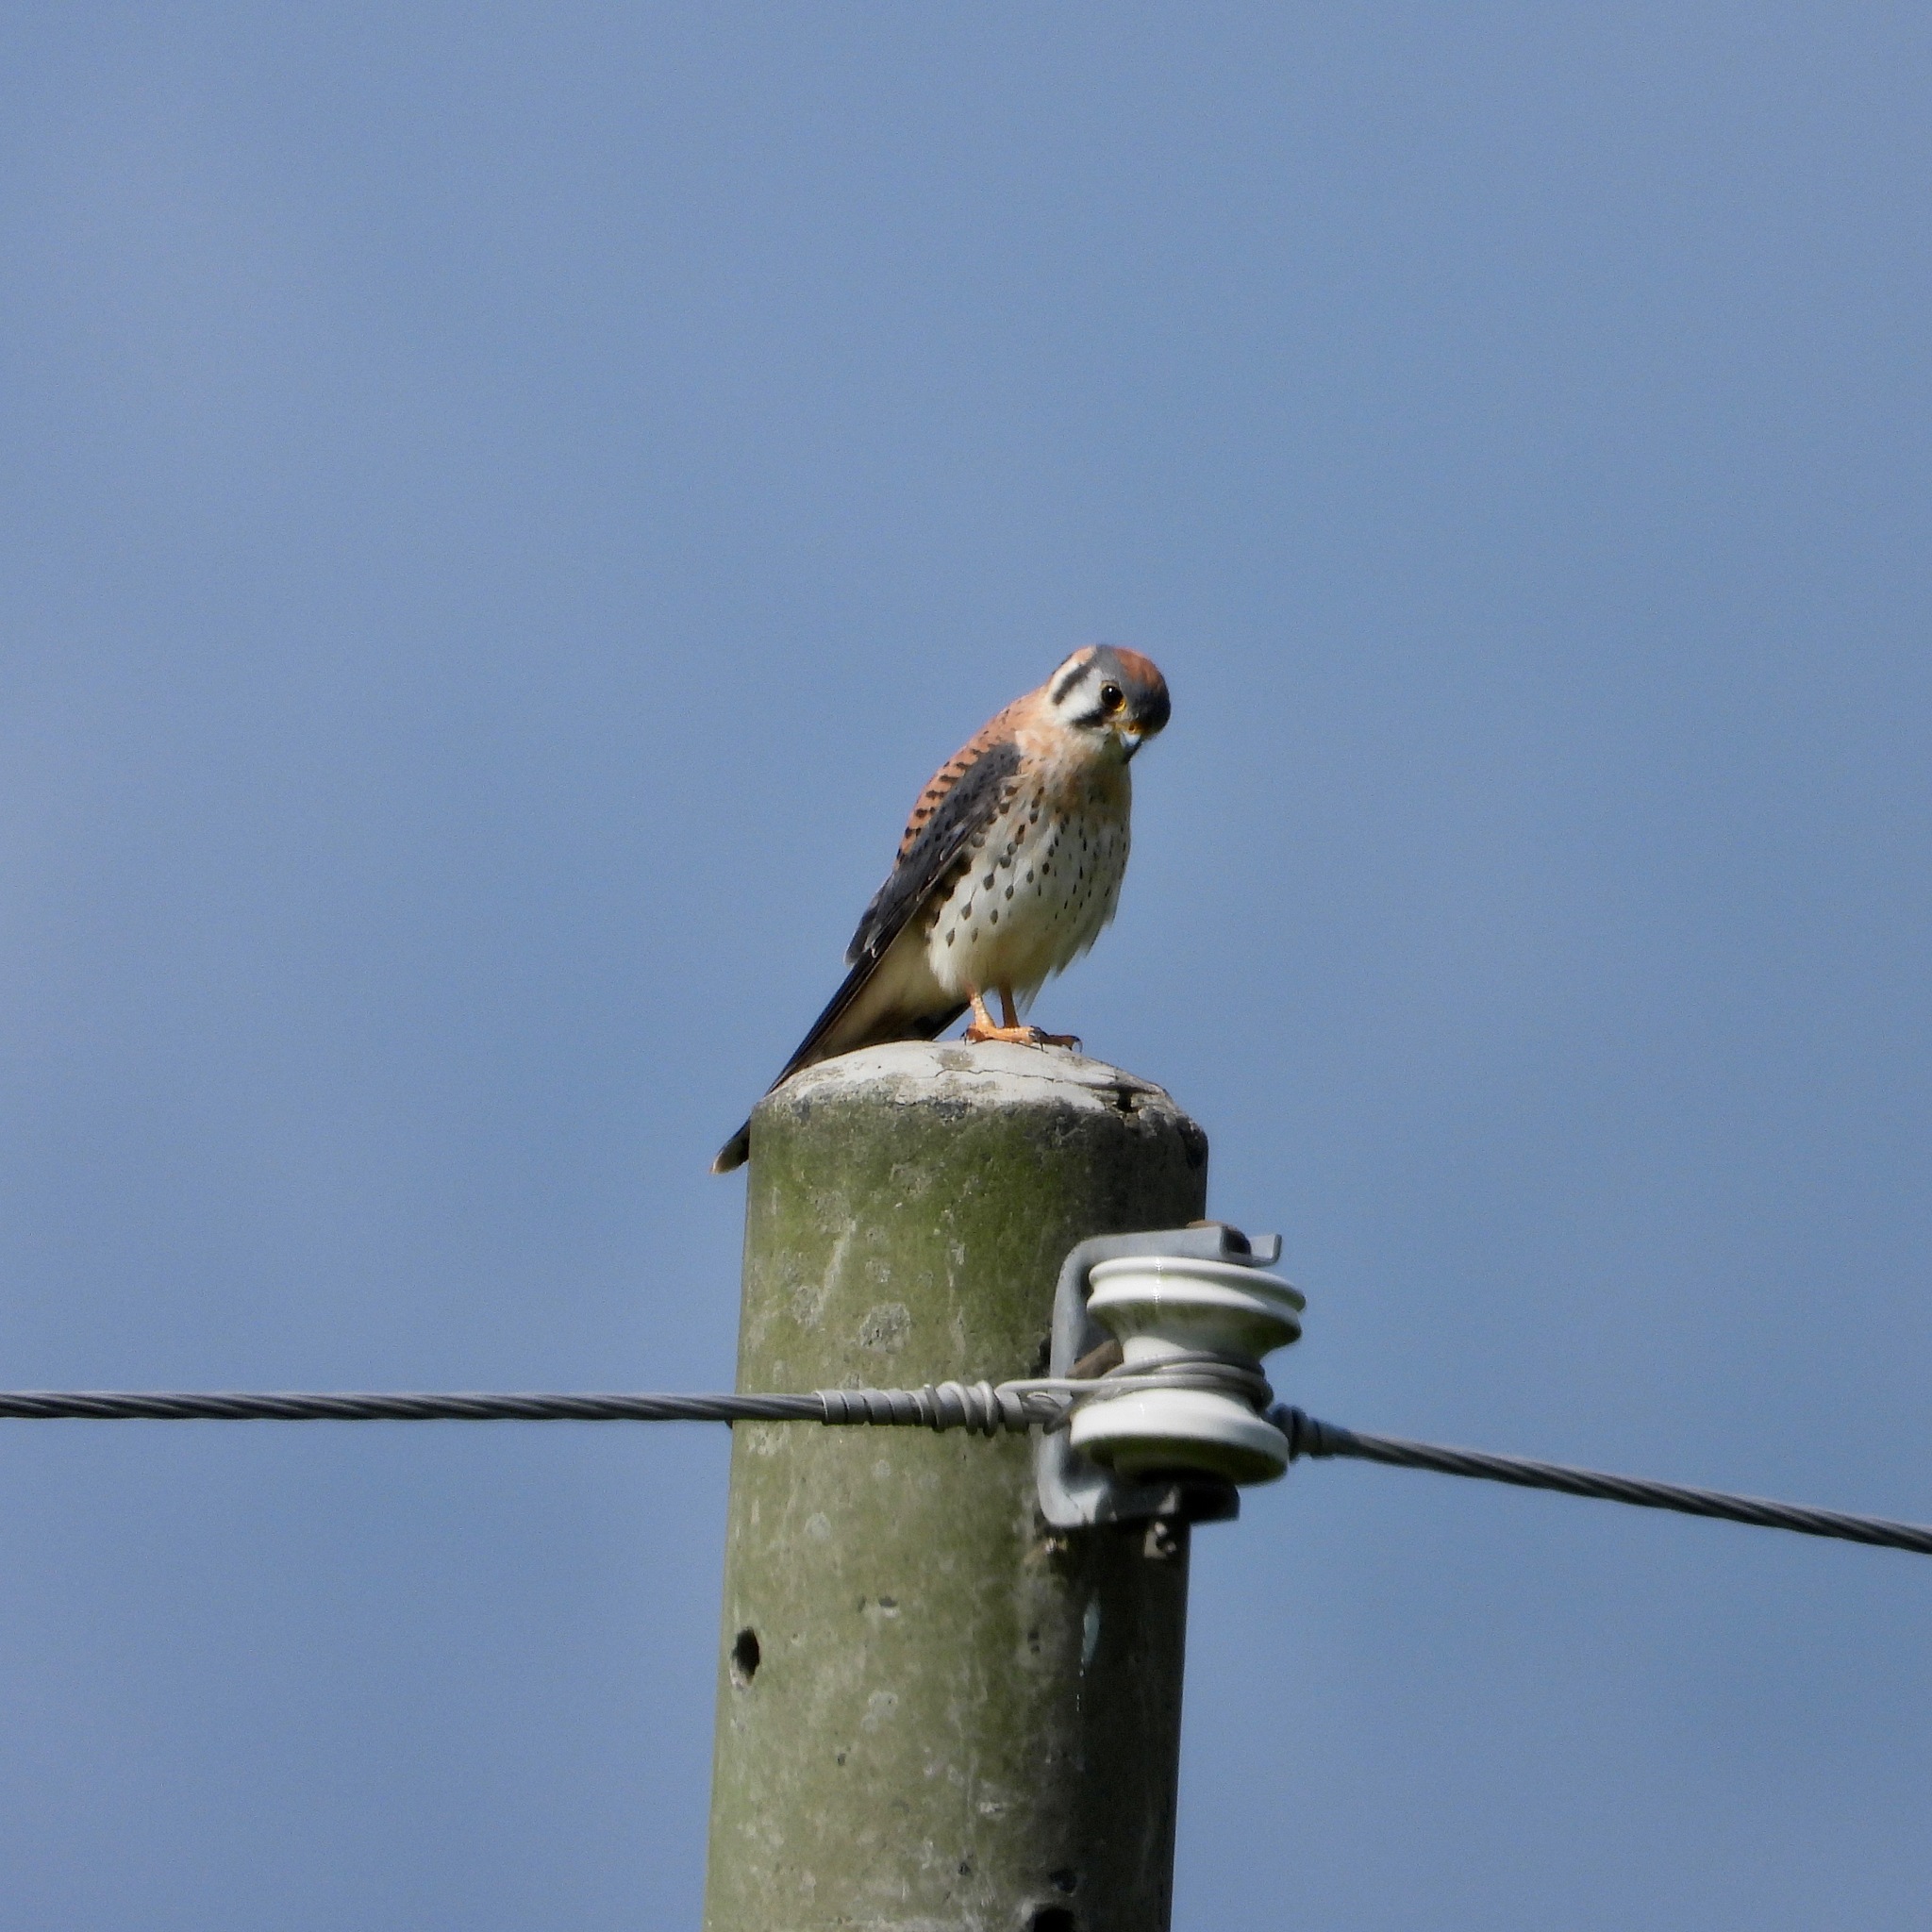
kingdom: Animalia
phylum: Chordata
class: Aves
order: Falconiformes
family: Falconidae
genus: Falco
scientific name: Falco sparverius
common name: American kestrel
